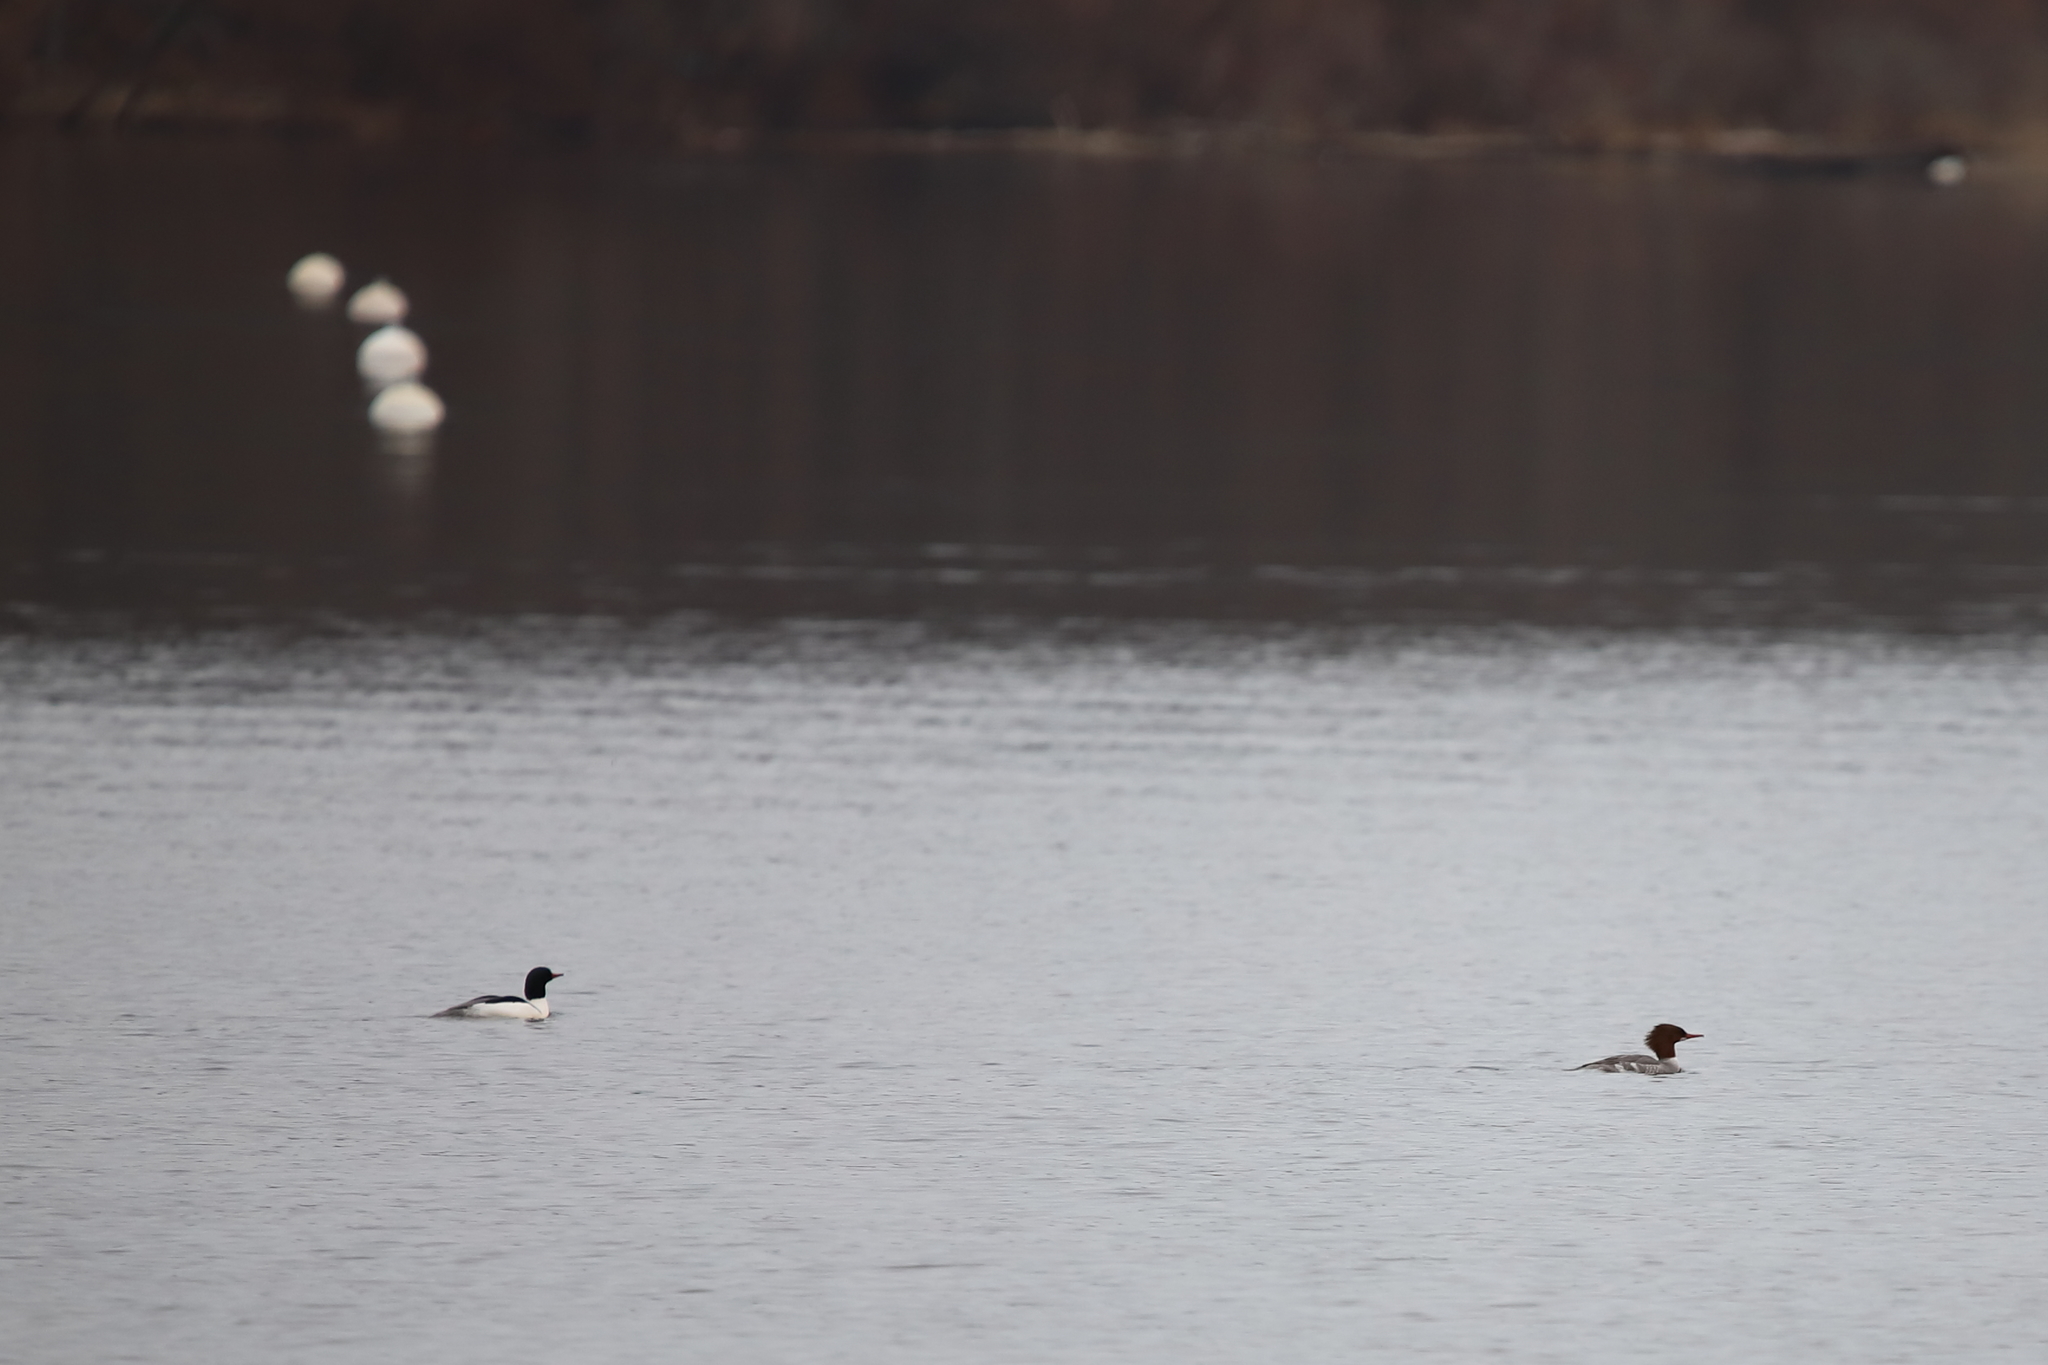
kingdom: Animalia
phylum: Chordata
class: Aves
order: Anseriformes
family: Anatidae
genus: Mergus
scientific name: Mergus merganser
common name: Common merganser
